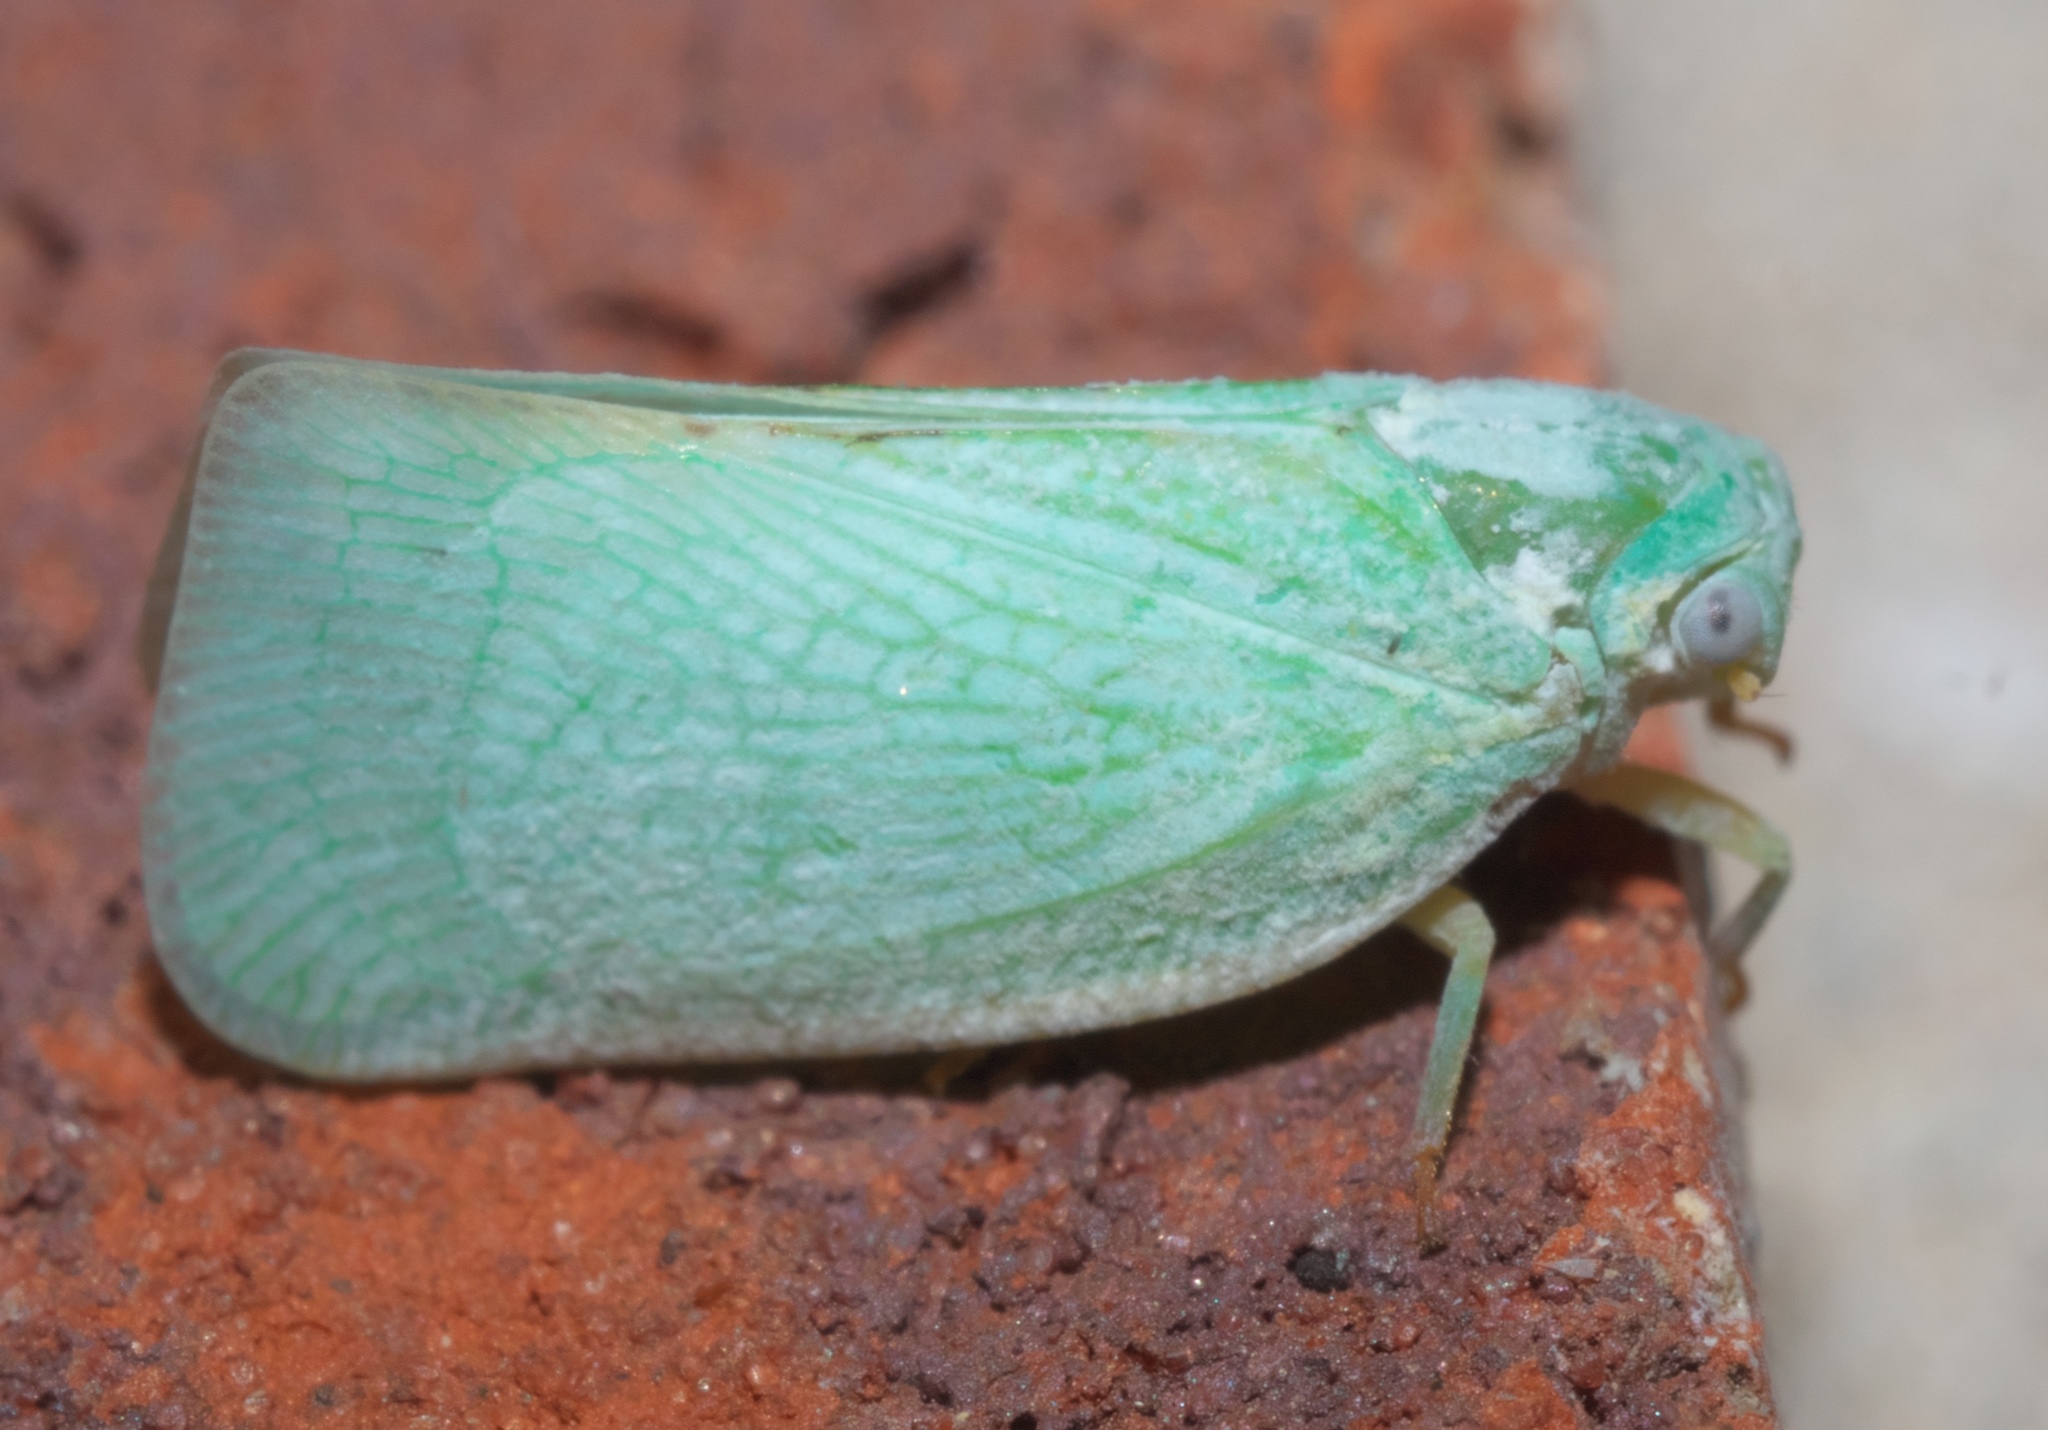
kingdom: Animalia
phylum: Arthropoda
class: Insecta
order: Hemiptera
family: Flatidae
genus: Flatormenis
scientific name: Flatormenis proxima
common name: Northern flatid planthopper
